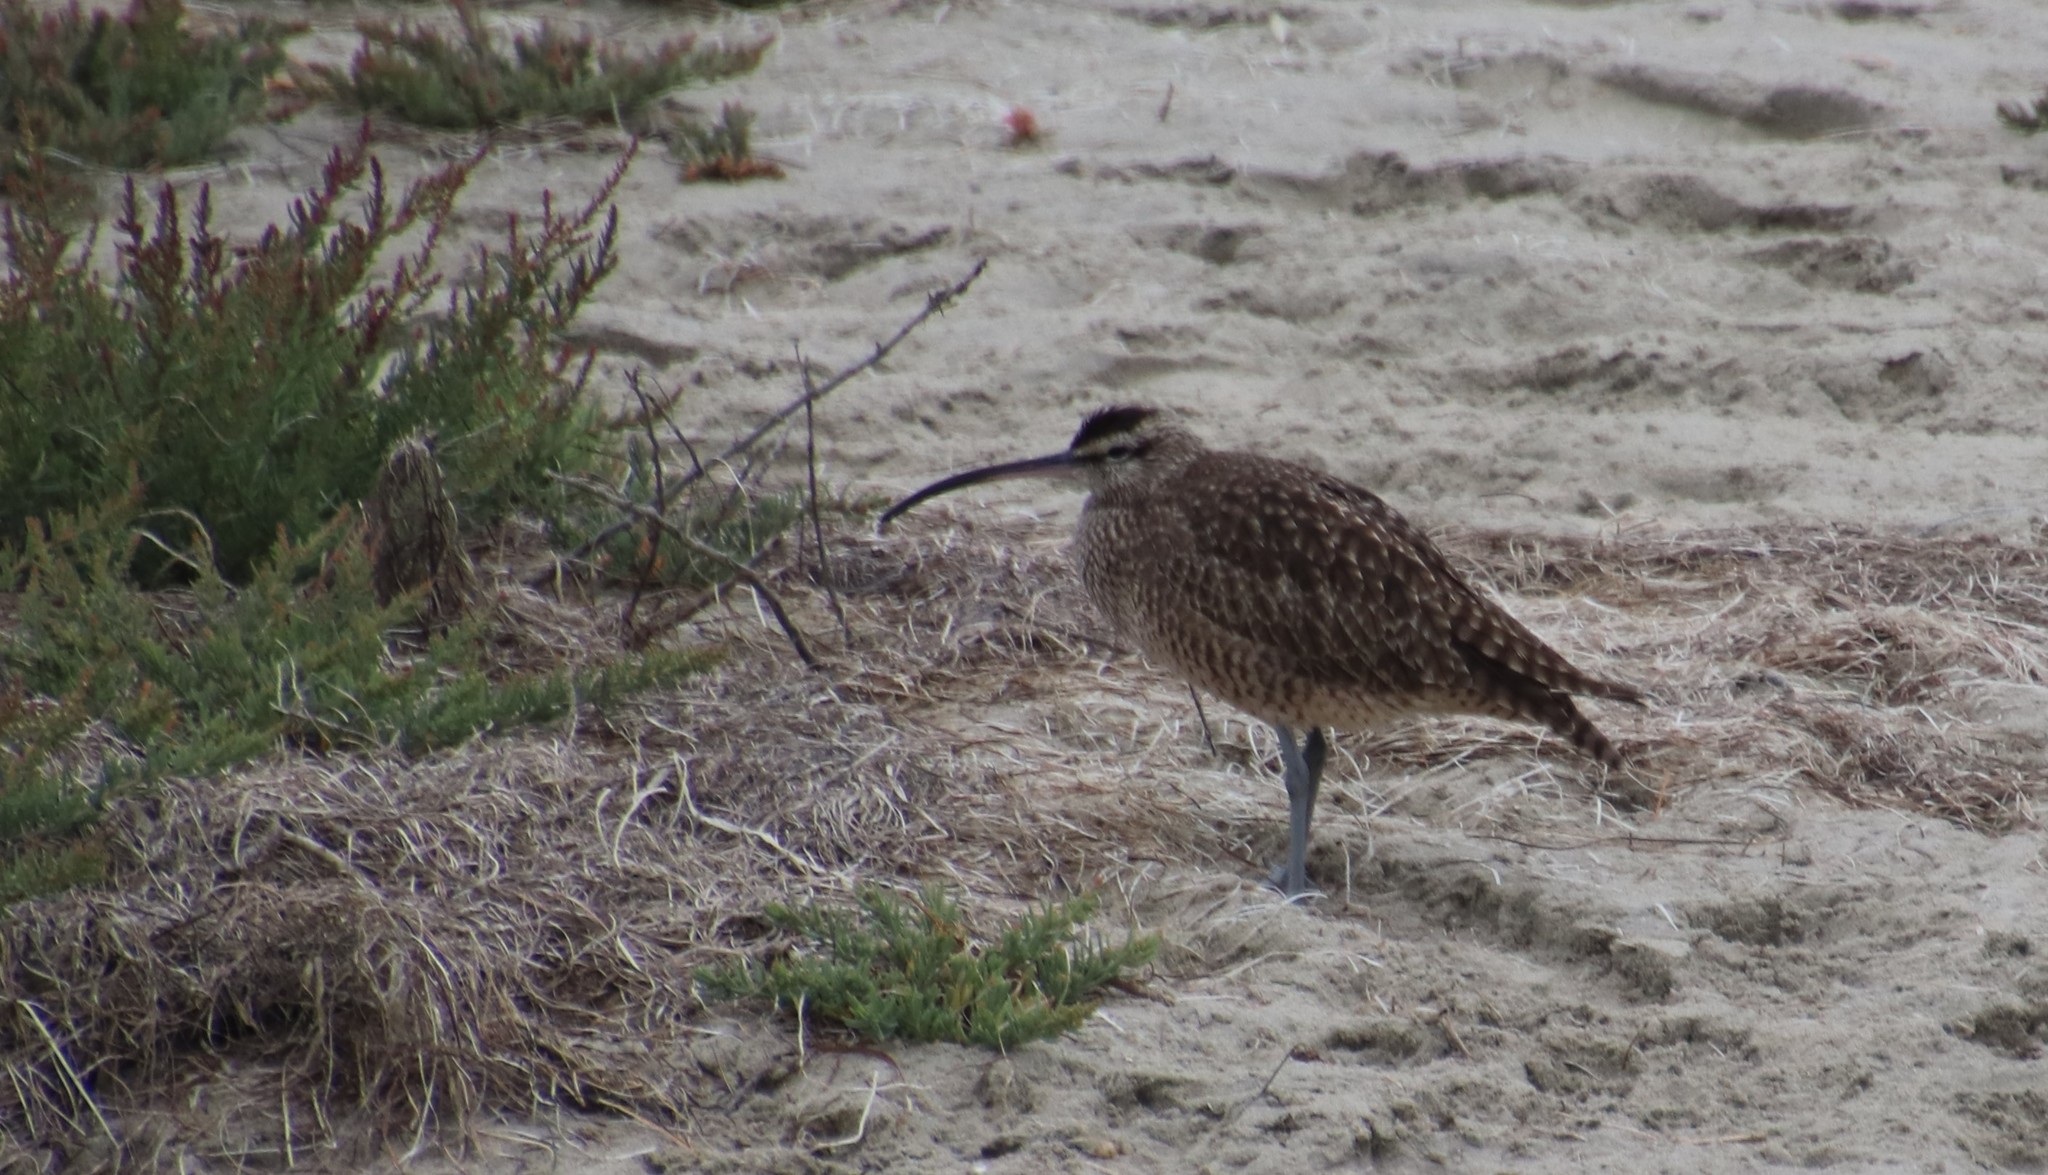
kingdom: Animalia
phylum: Chordata
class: Aves
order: Charadriiformes
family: Scolopacidae
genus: Numenius
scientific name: Numenius phaeopus
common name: Whimbrel
